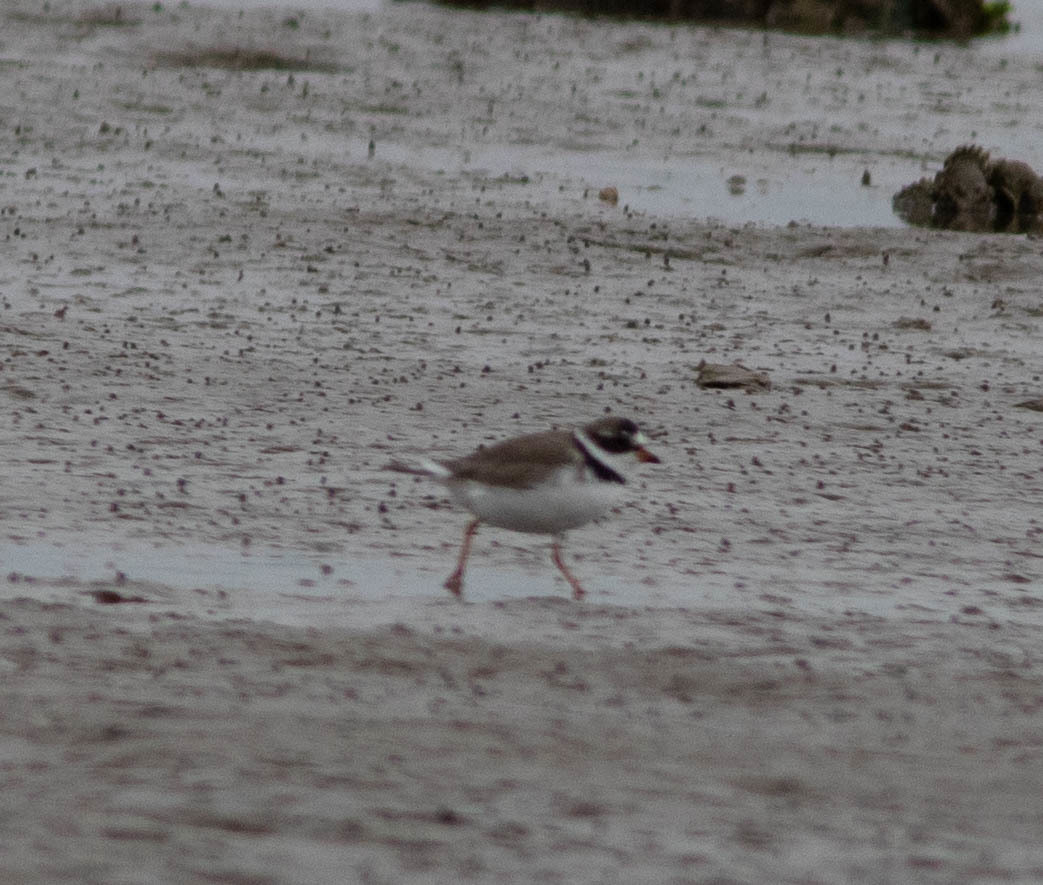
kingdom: Animalia
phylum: Chordata
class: Aves
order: Charadriiformes
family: Charadriidae
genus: Charadrius
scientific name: Charadrius semipalmatus
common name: Semipalmated plover
